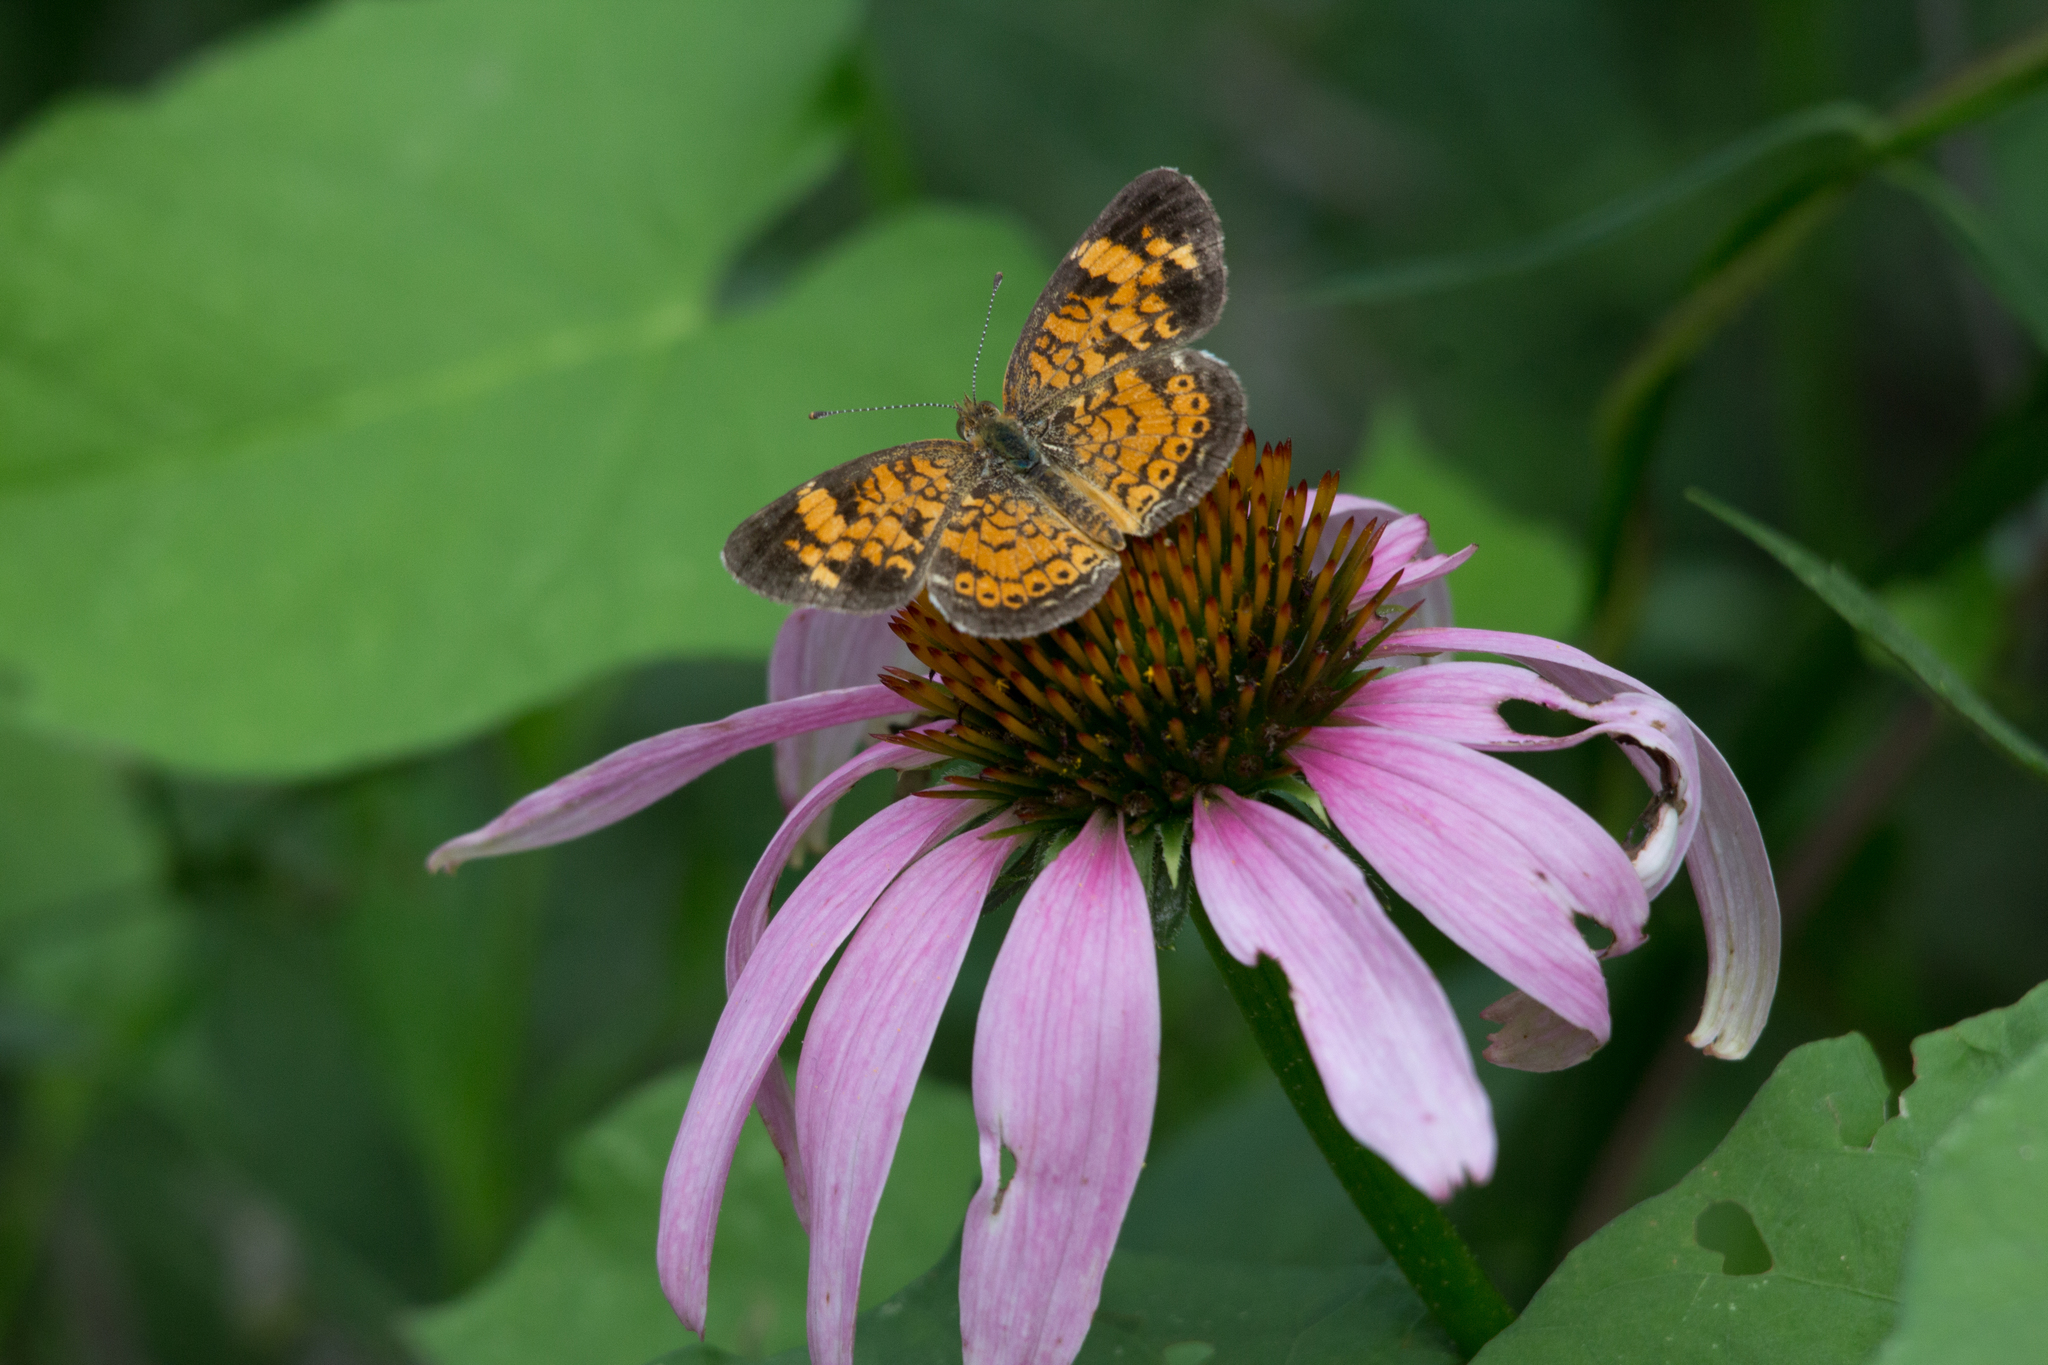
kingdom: Animalia
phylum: Arthropoda
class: Insecta
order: Lepidoptera
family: Nymphalidae
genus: Phyciodes
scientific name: Phyciodes tharos
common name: Pearl crescent
